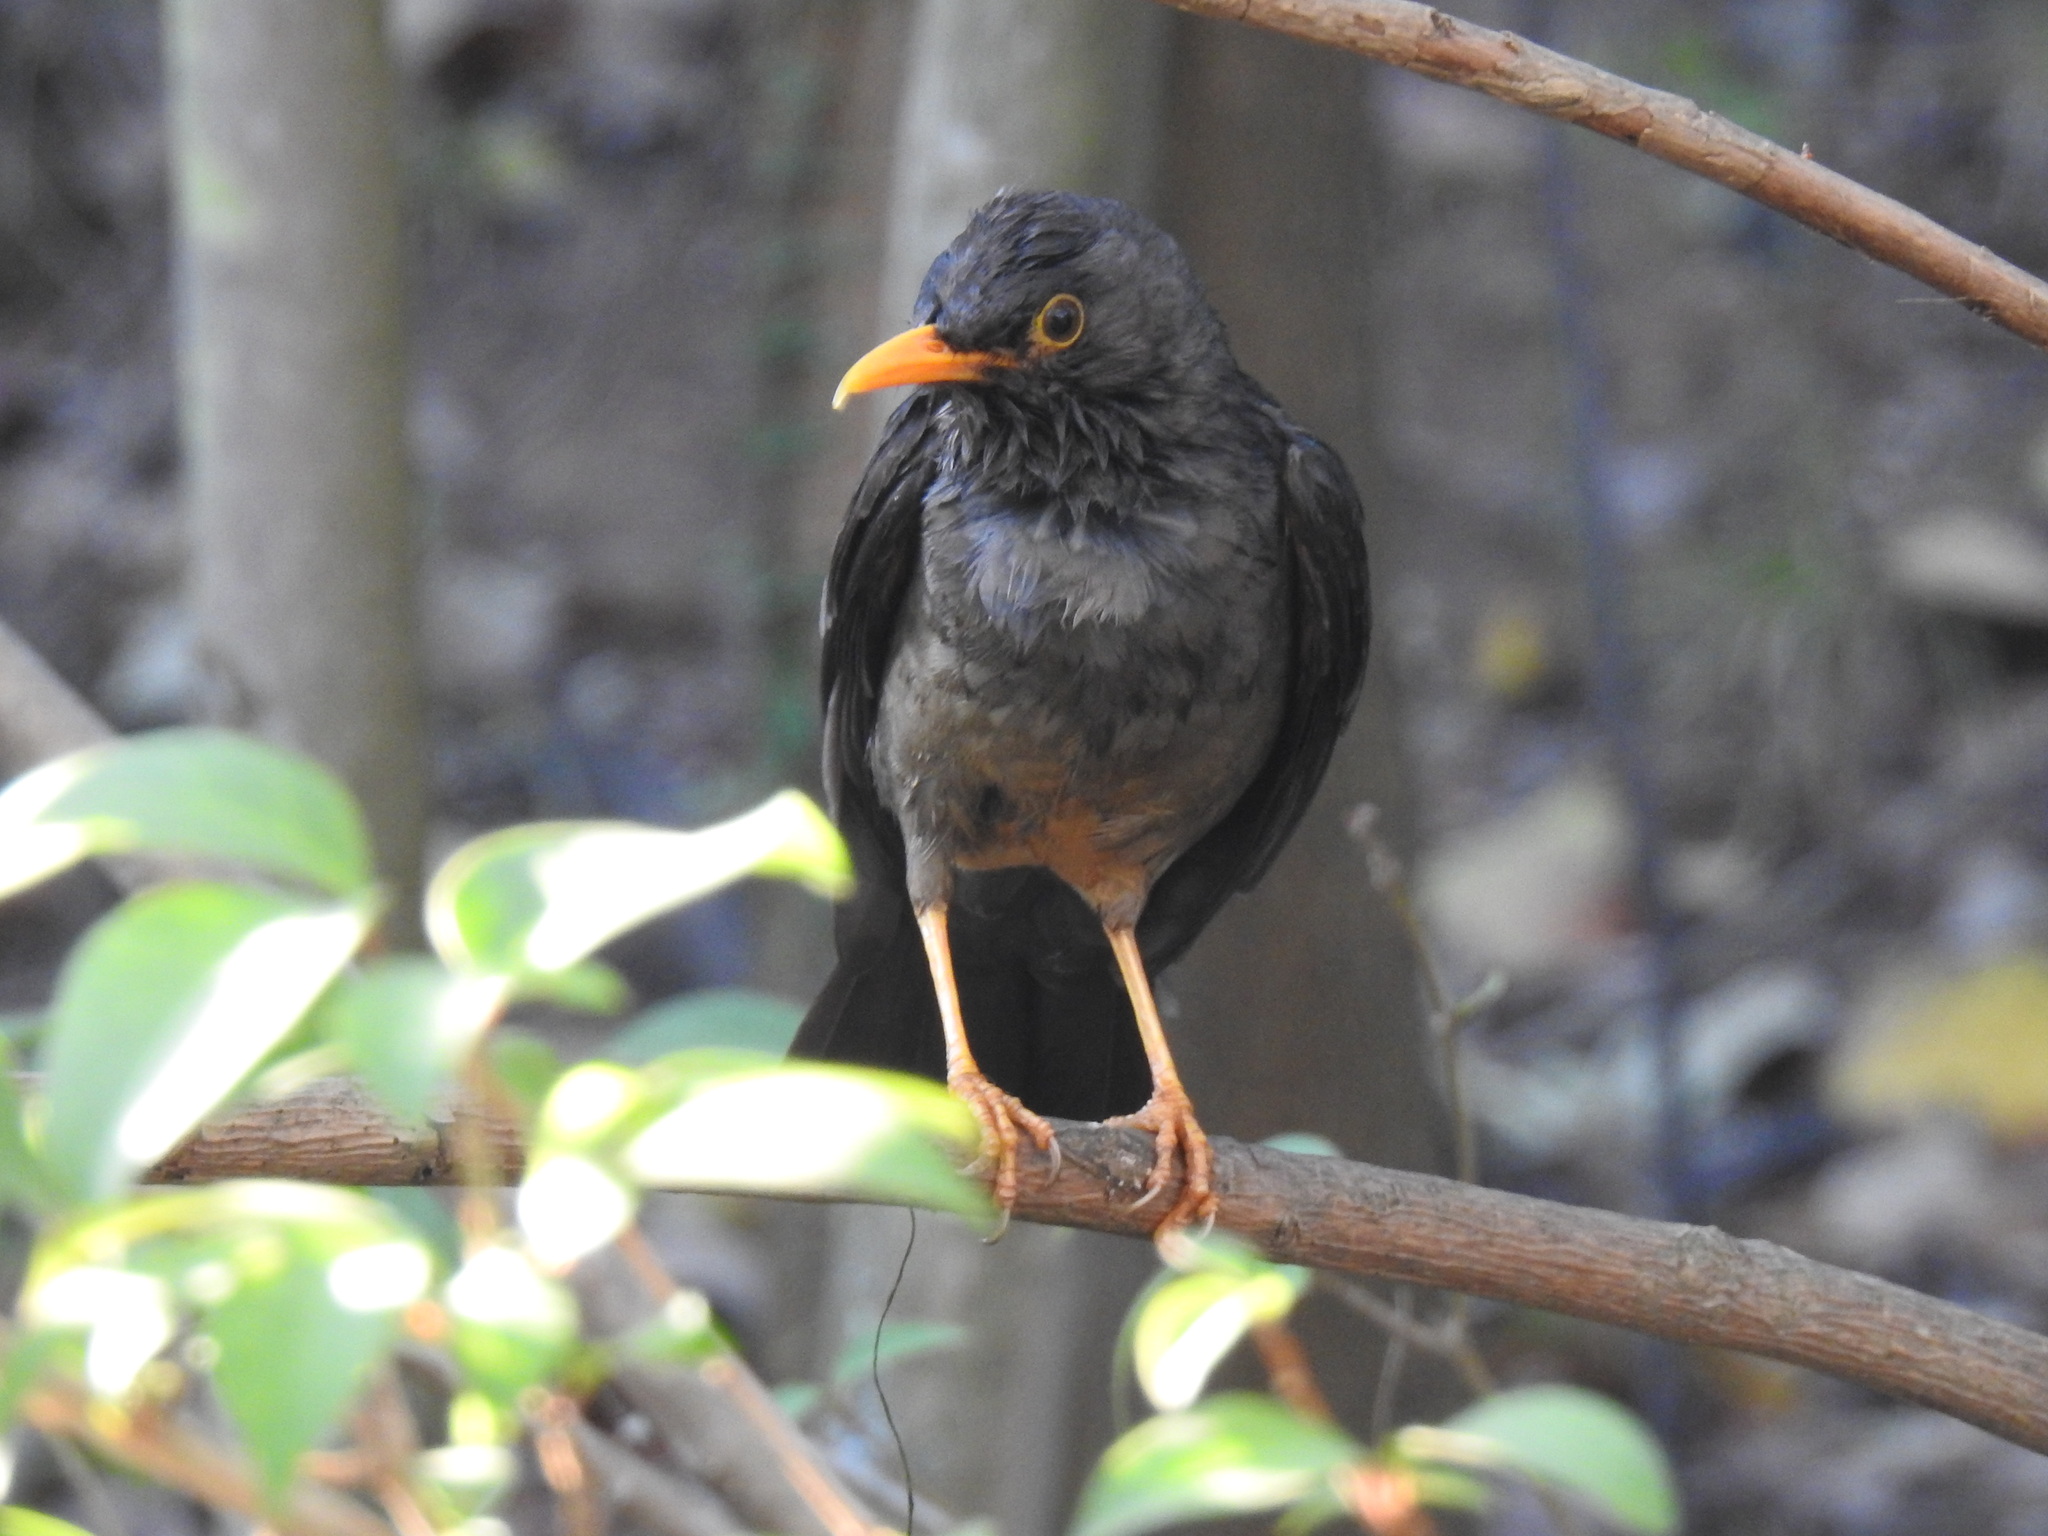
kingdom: Animalia
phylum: Chordata
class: Aves
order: Passeriformes
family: Turdidae
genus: Turdus
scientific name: Turdus smithi
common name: Karoo thrush
